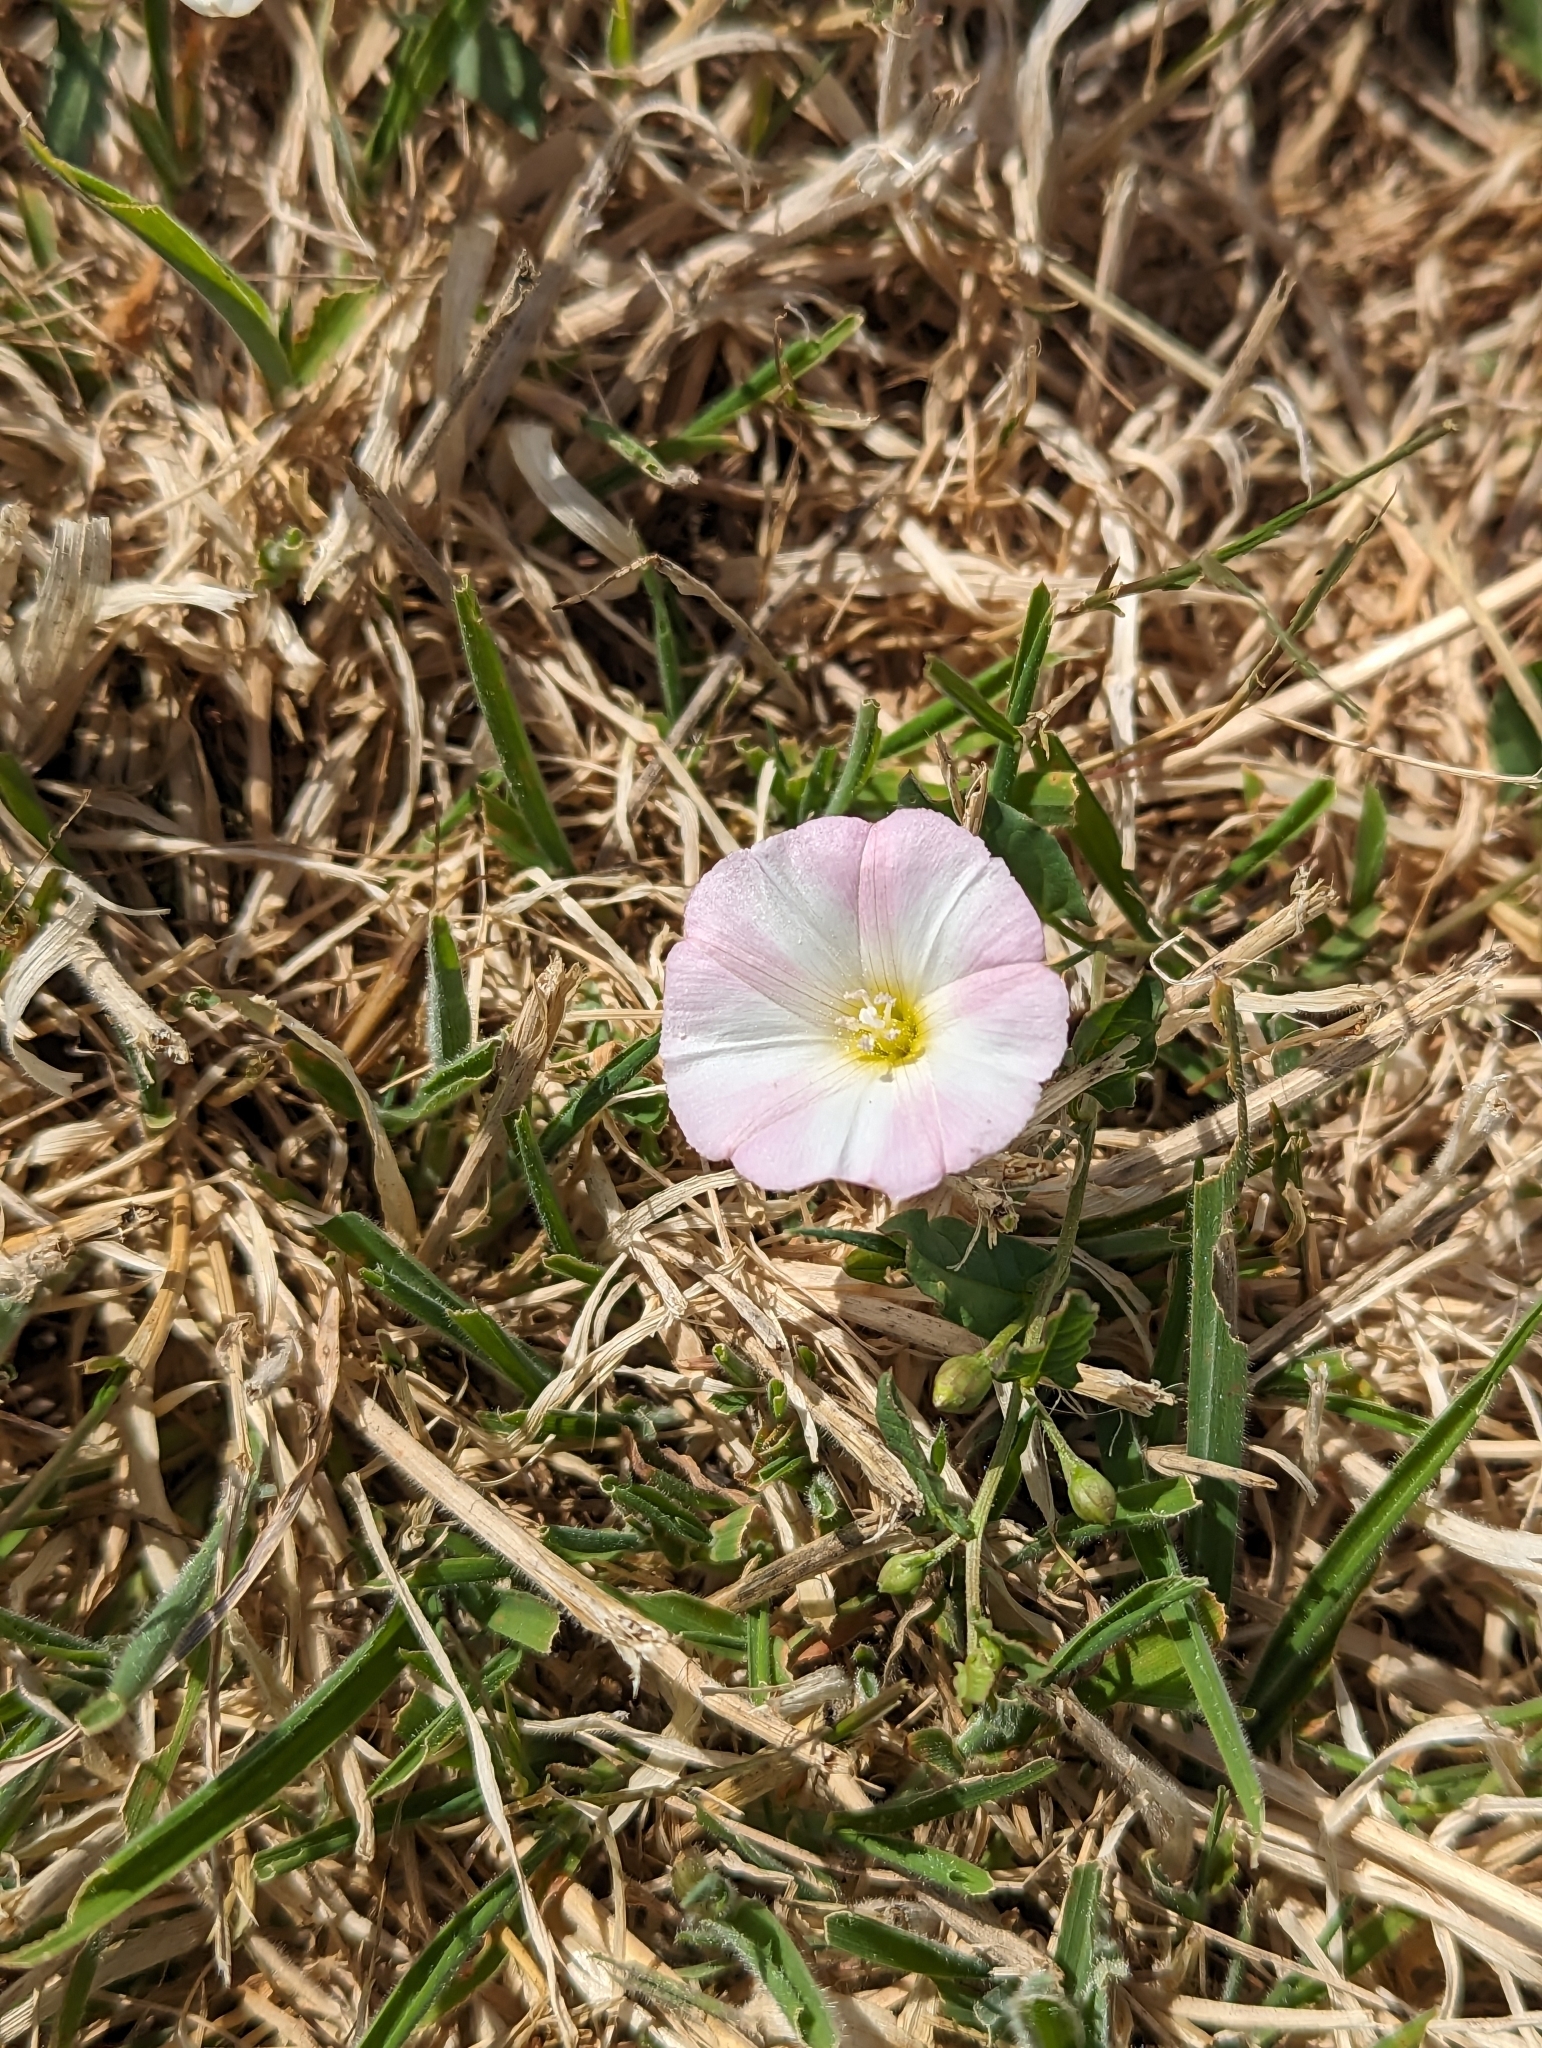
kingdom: Plantae
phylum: Tracheophyta
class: Magnoliopsida
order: Solanales
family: Convolvulaceae
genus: Convolvulus
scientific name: Convolvulus arvensis
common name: Field bindweed
